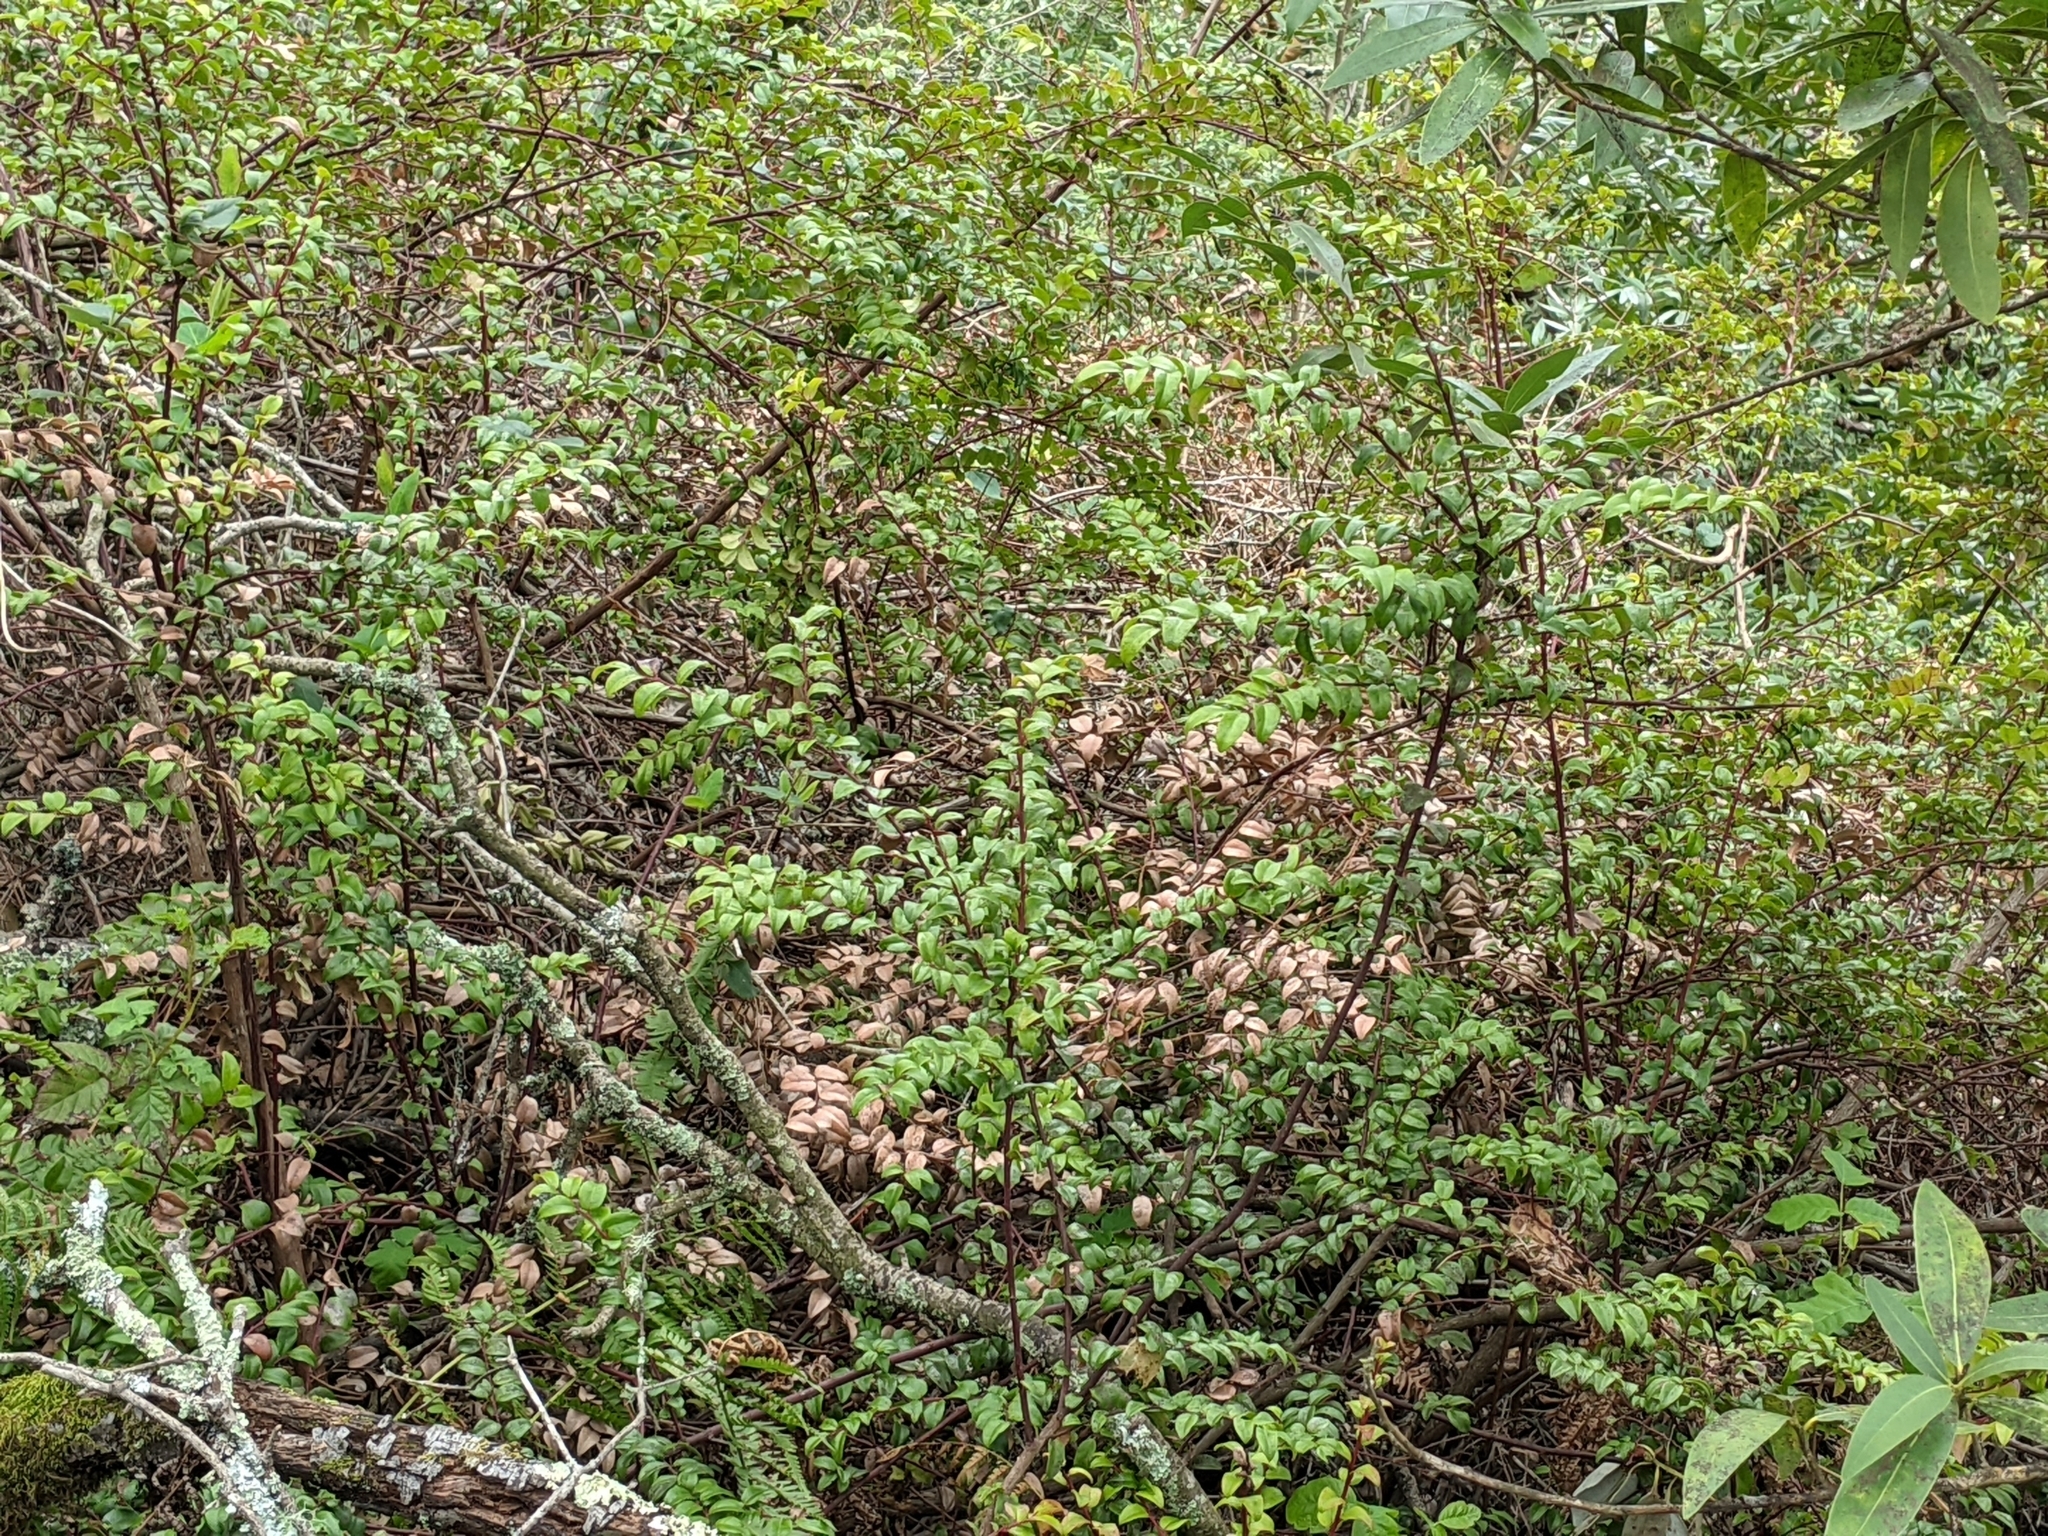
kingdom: Plantae
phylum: Tracheophyta
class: Magnoliopsida
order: Ericales
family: Ericaceae
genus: Vaccinium
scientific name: Vaccinium ovatum
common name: California-huckleberry
